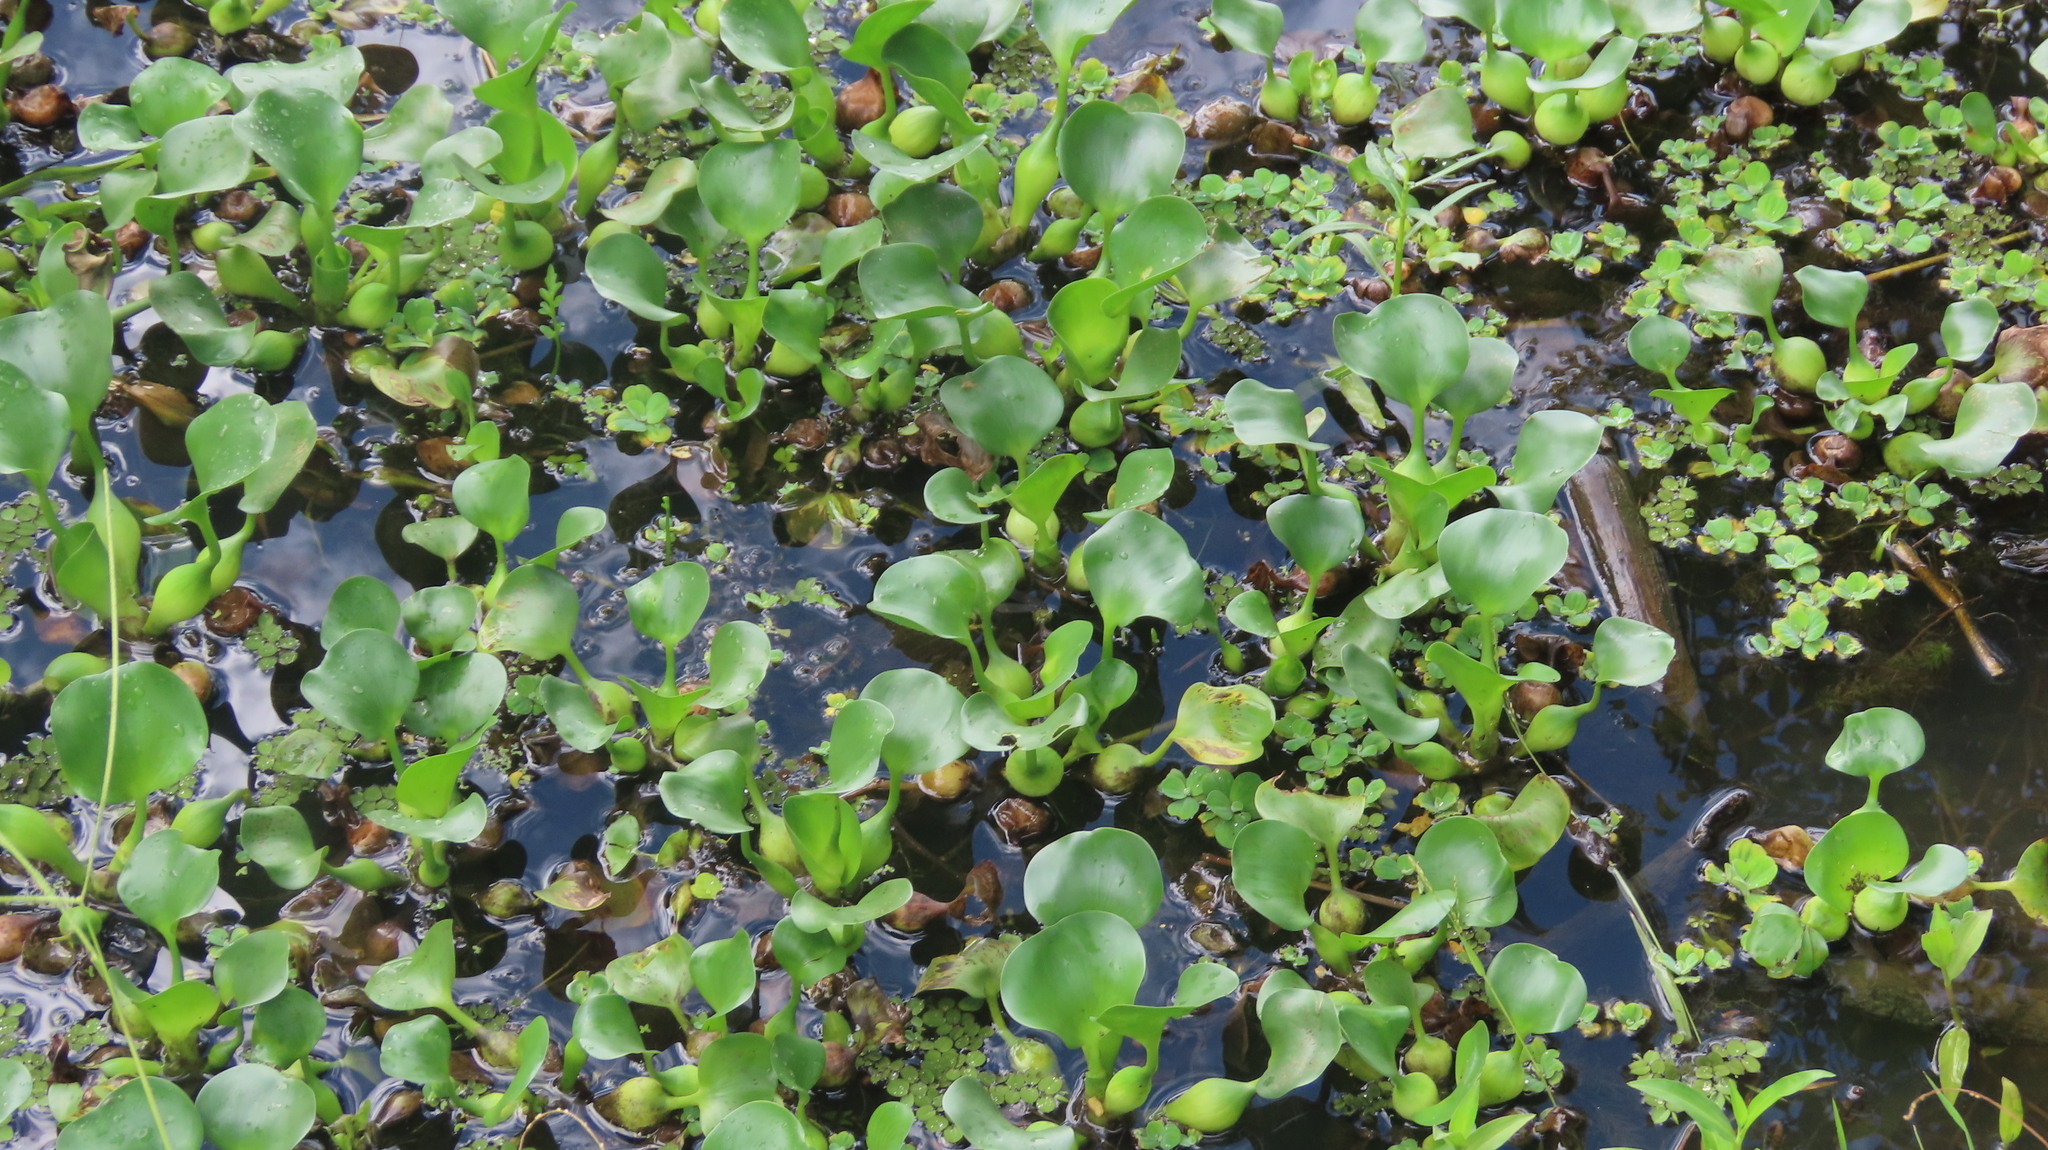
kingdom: Plantae
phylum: Tracheophyta
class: Liliopsida
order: Commelinales
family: Pontederiaceae
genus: Pontederia
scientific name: Pontederia crassipes
